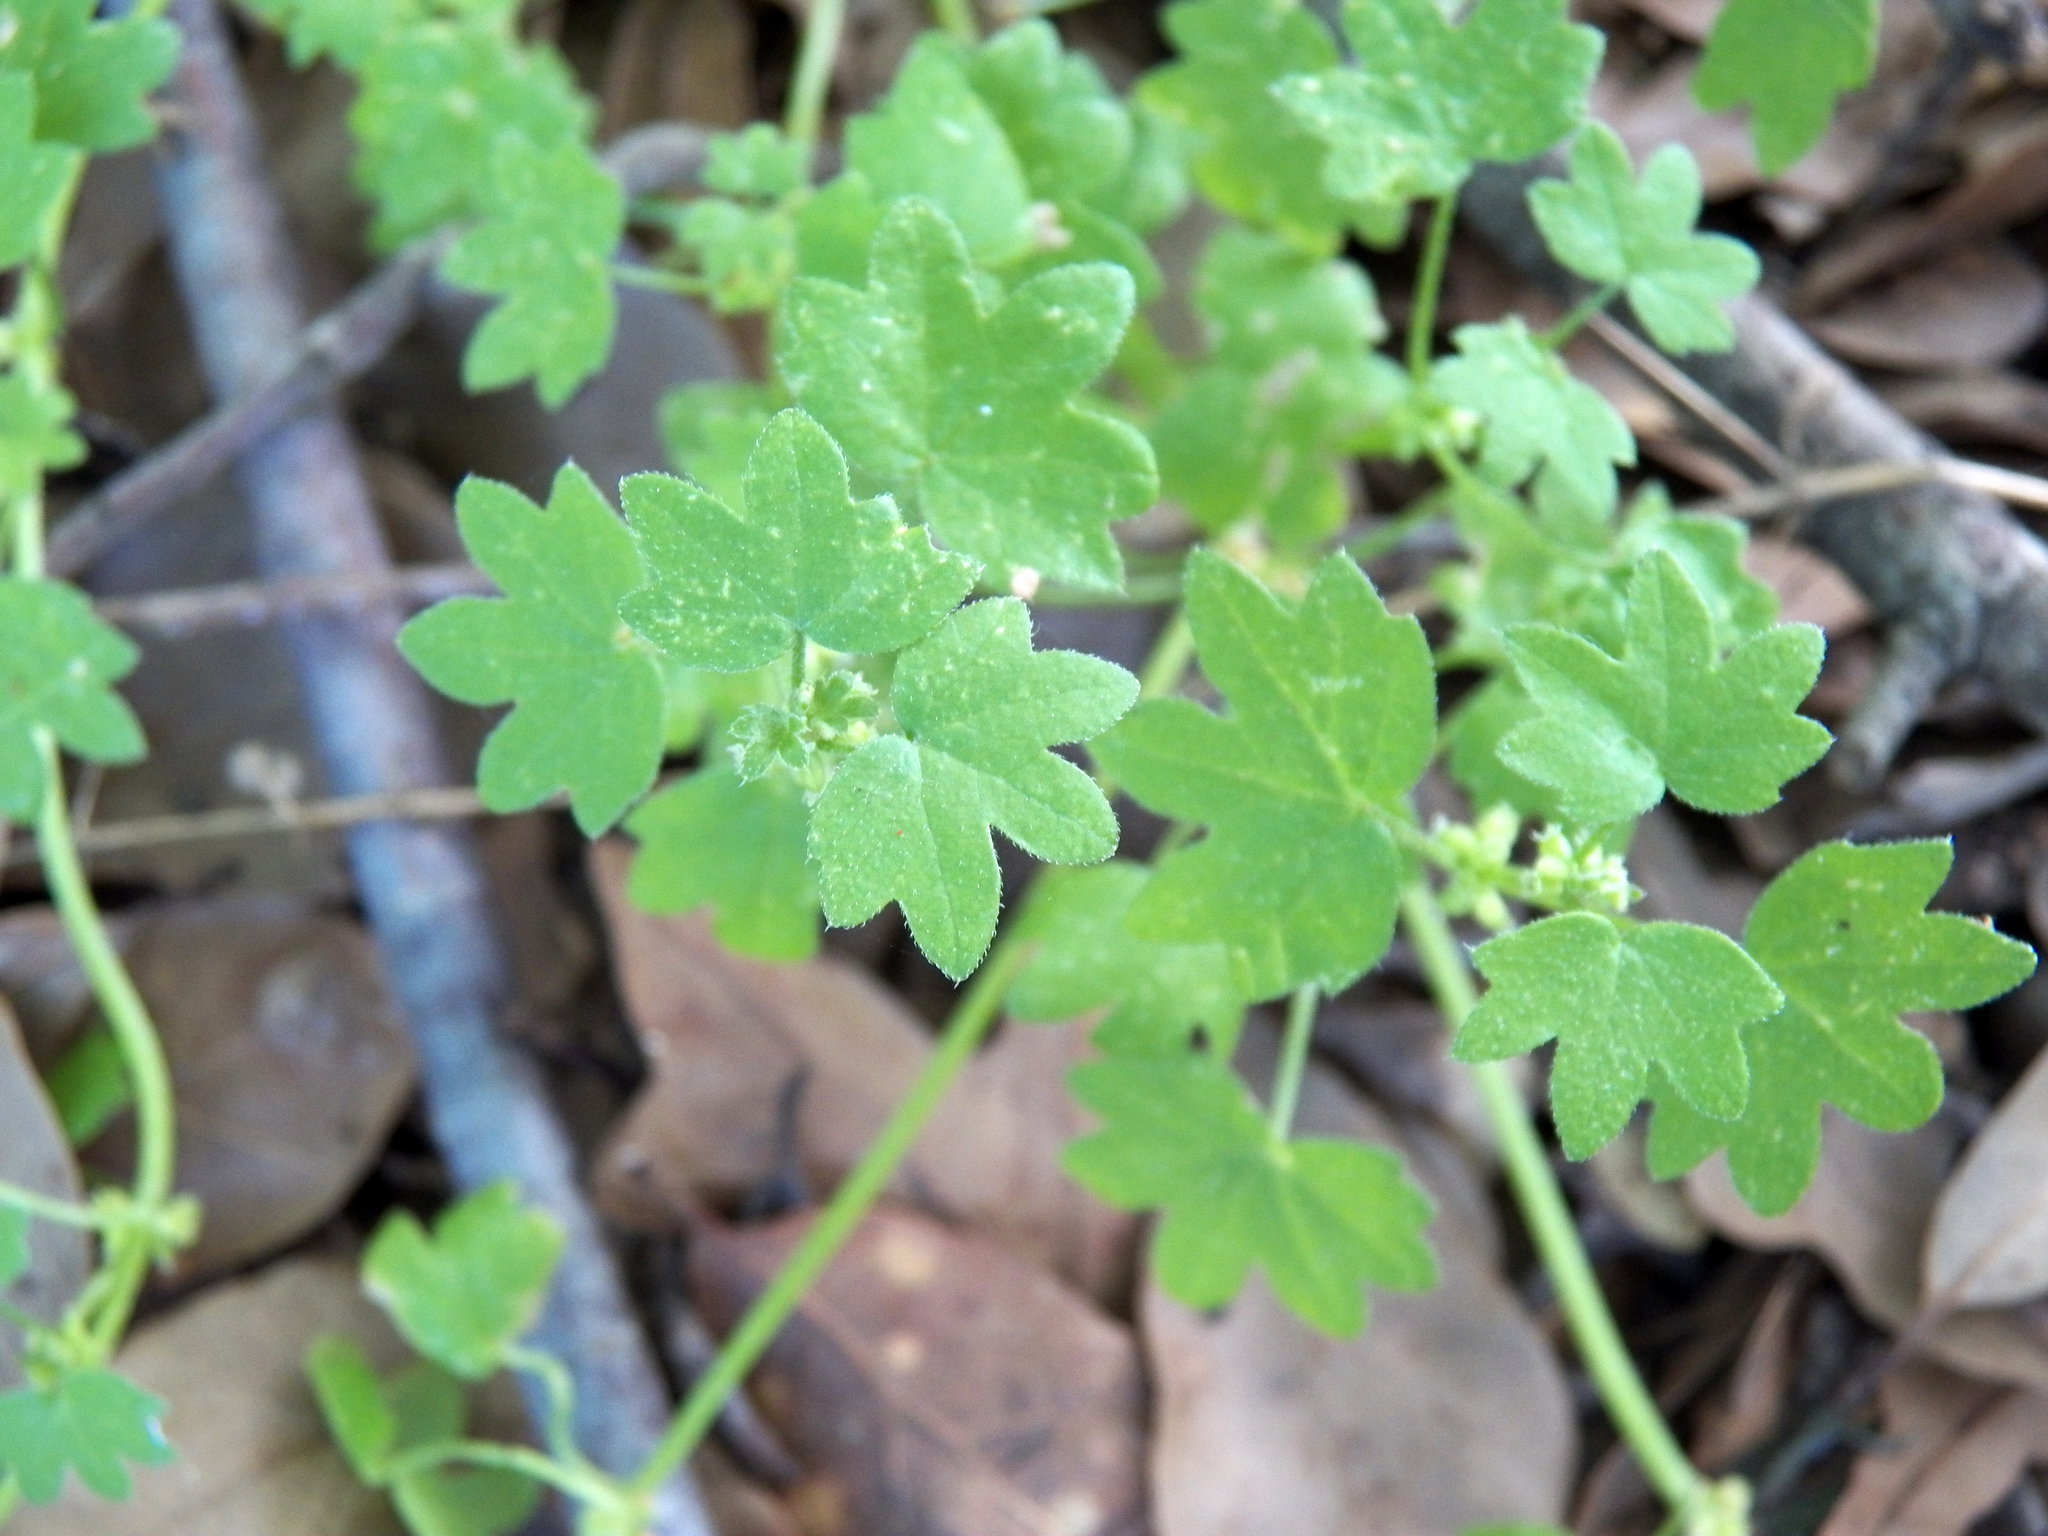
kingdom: Plantae
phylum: Tracheophyta
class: Magnoliopsida
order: Apiales
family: Apiaceae
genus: Bowlesia
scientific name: Bowlesia incana
